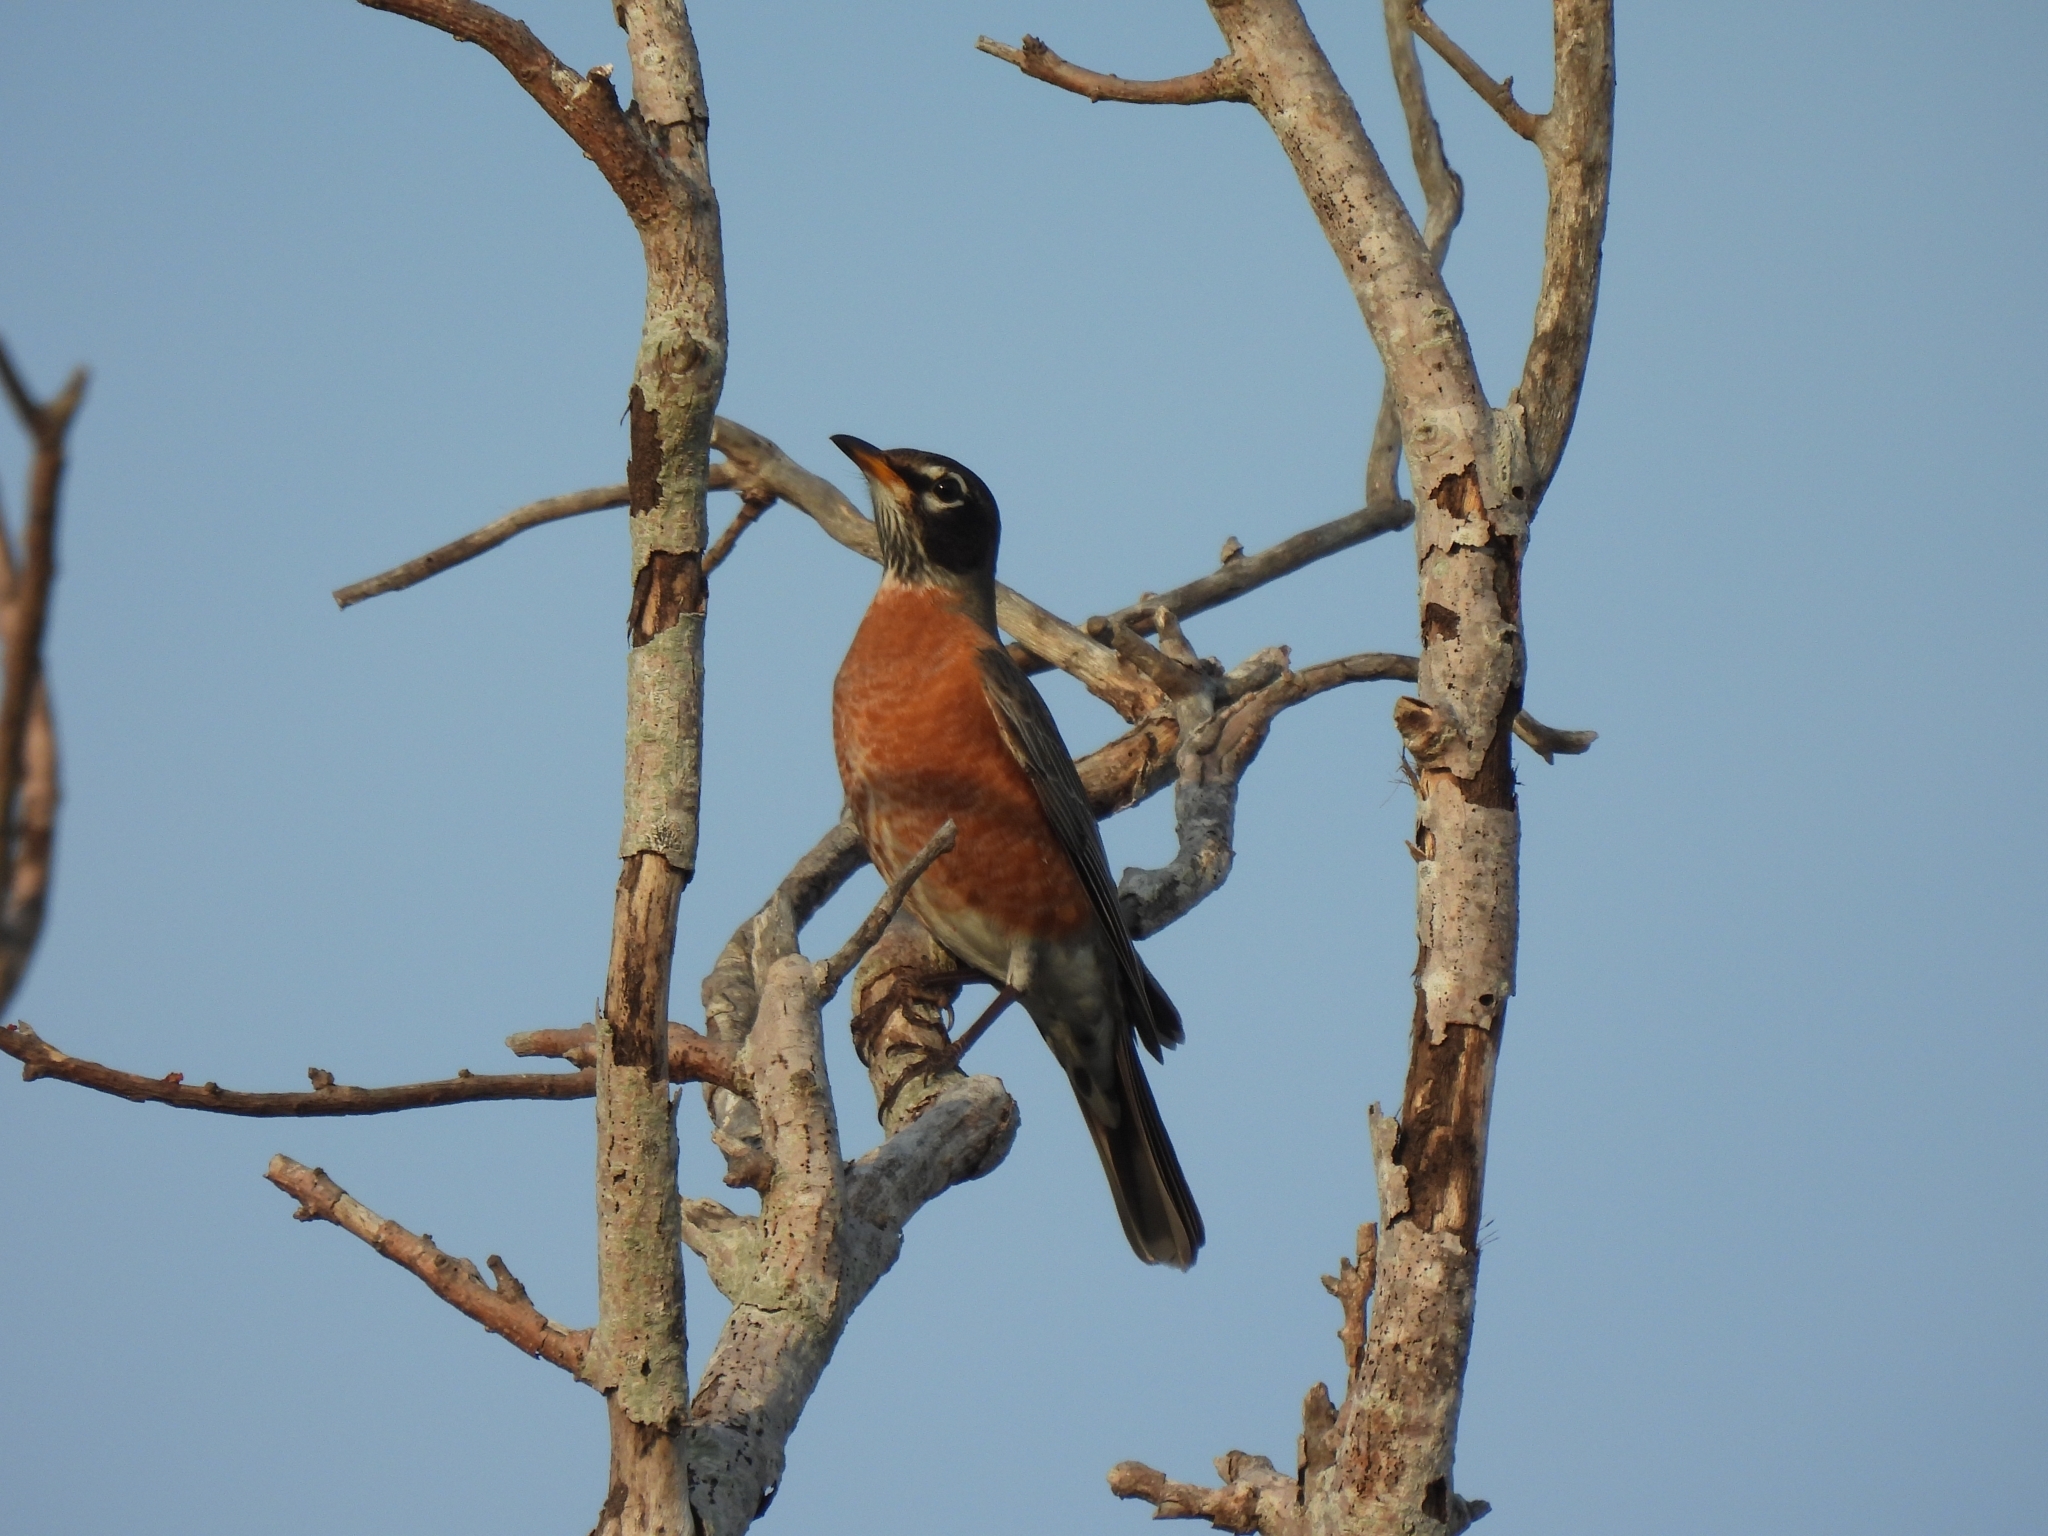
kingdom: Animalia
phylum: Chordata
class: Aves
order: Passeriformes
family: Turdidae
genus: Turdus
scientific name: Turdus migratorius
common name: American robin
